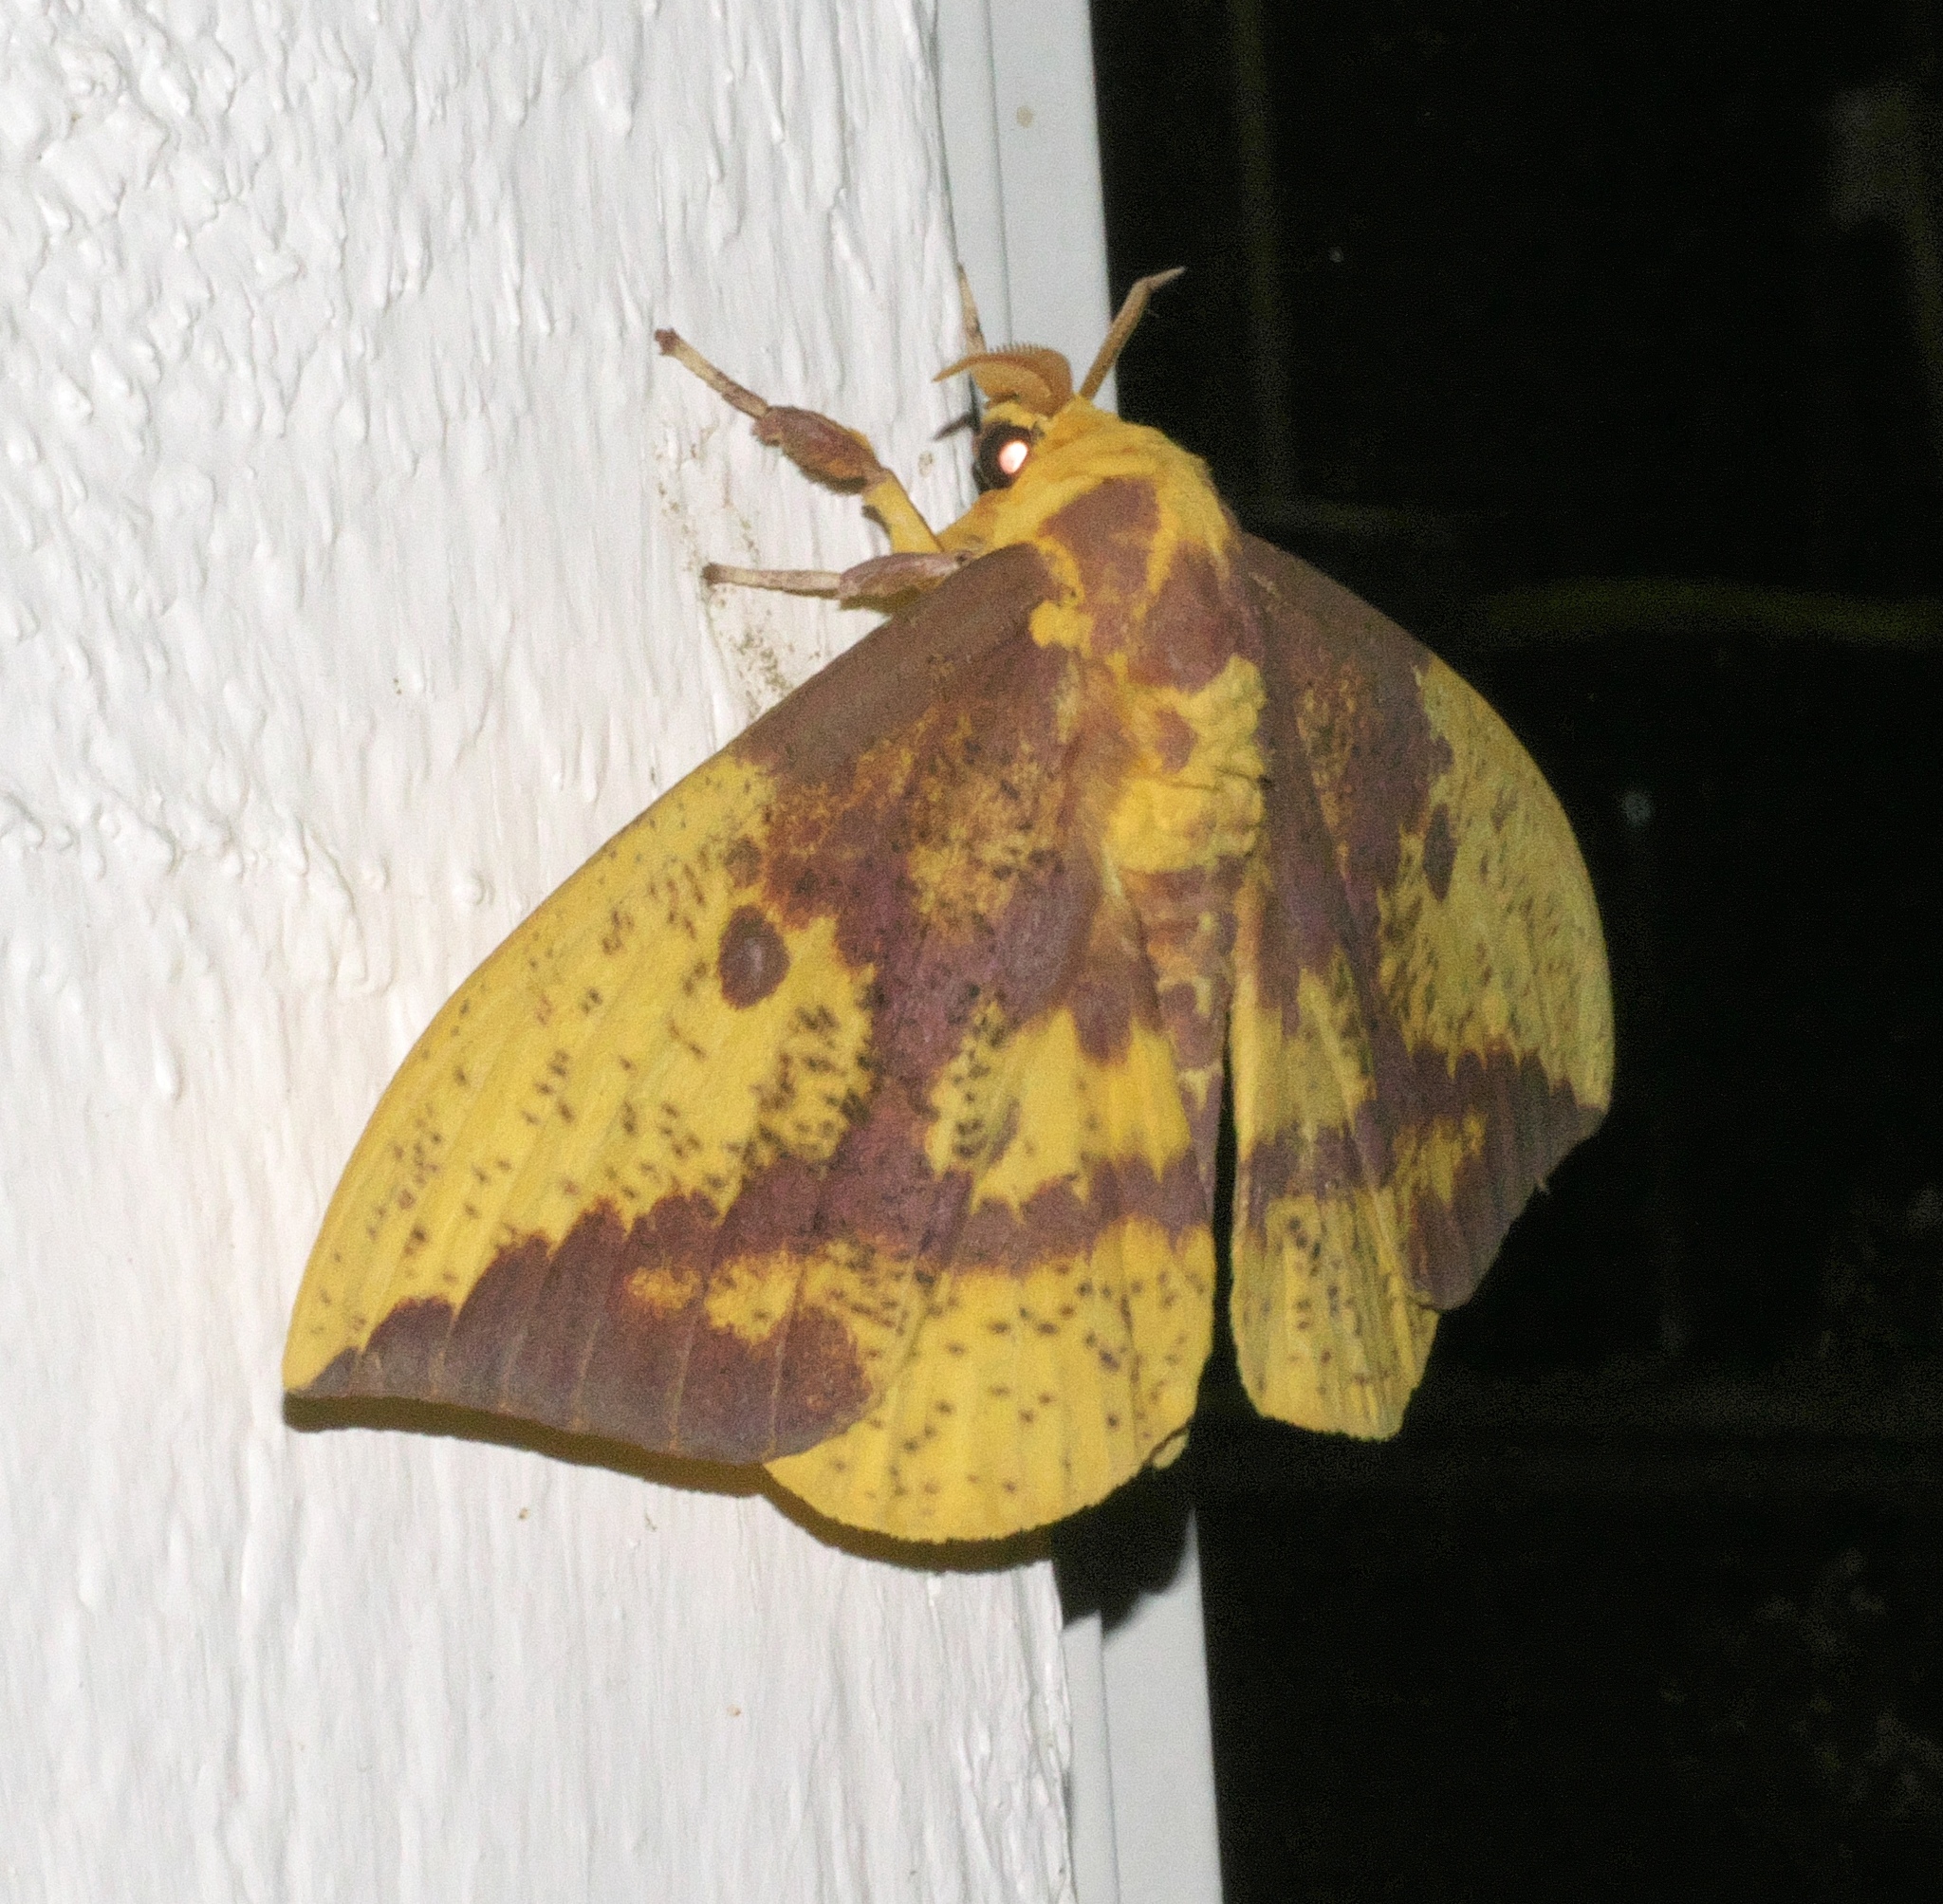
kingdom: Animalia
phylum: Arthropoda
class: Insecta
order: Lepidoptera
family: Saturniidae
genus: Eacles
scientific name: Eacles imperialis
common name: Imperial moth
